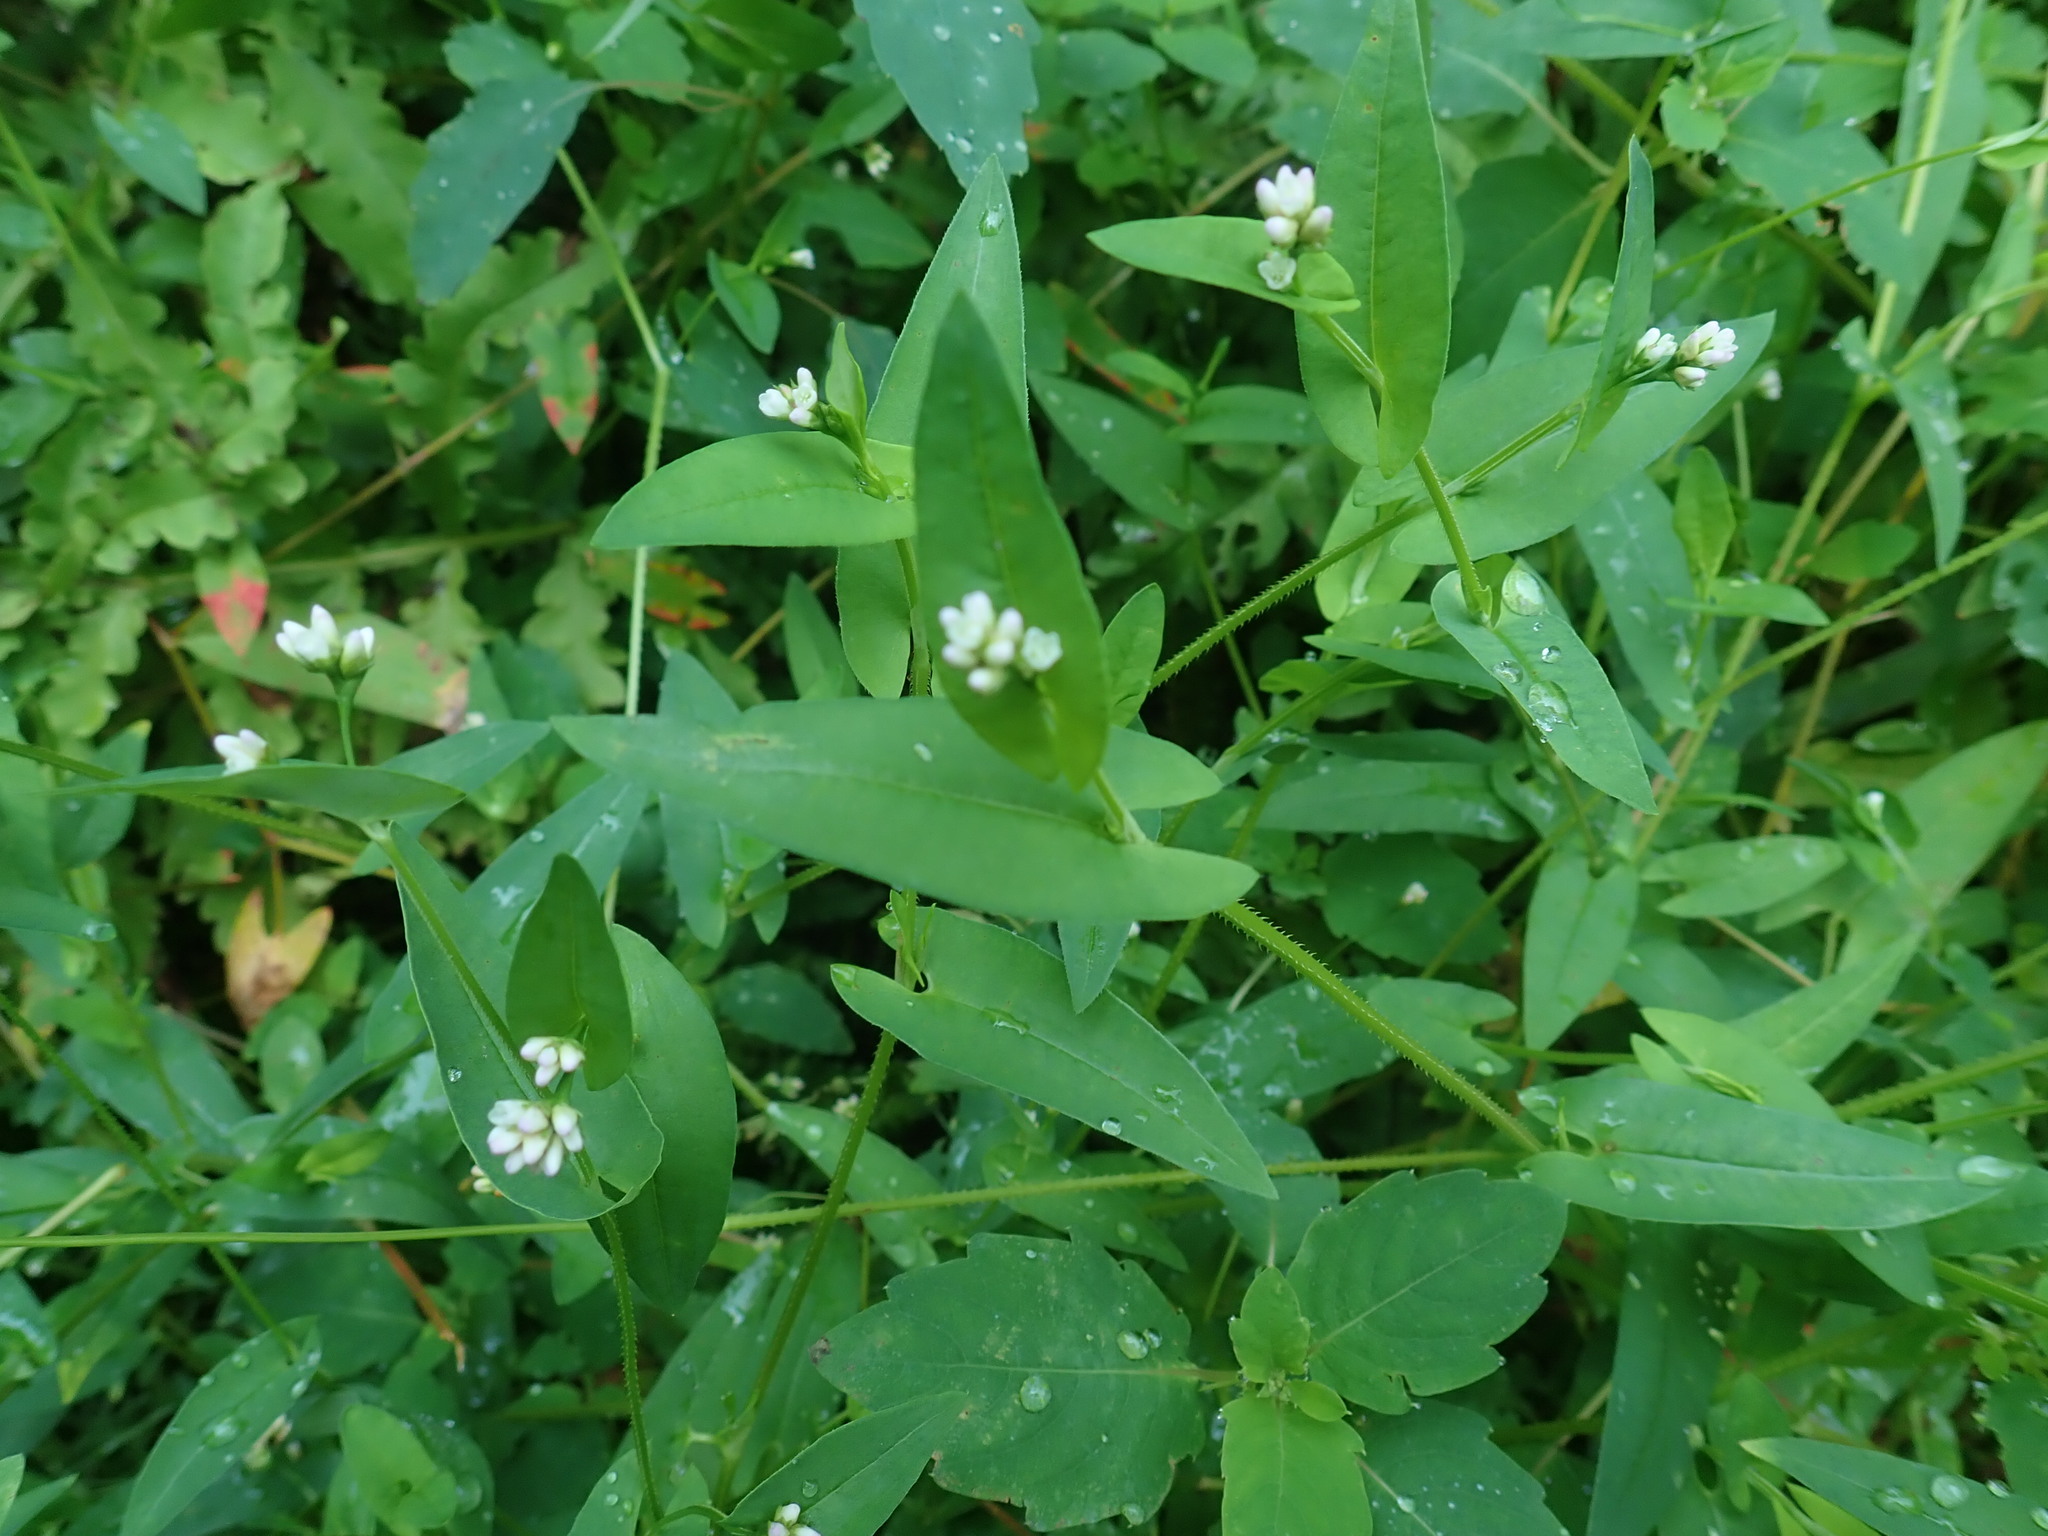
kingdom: Plantae
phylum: Tracheophyta
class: Magnoliopsida
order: Caryophyllales
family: Polygonaceae
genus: Persicaria
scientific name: Persicaria sagittata
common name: American tearthumb
